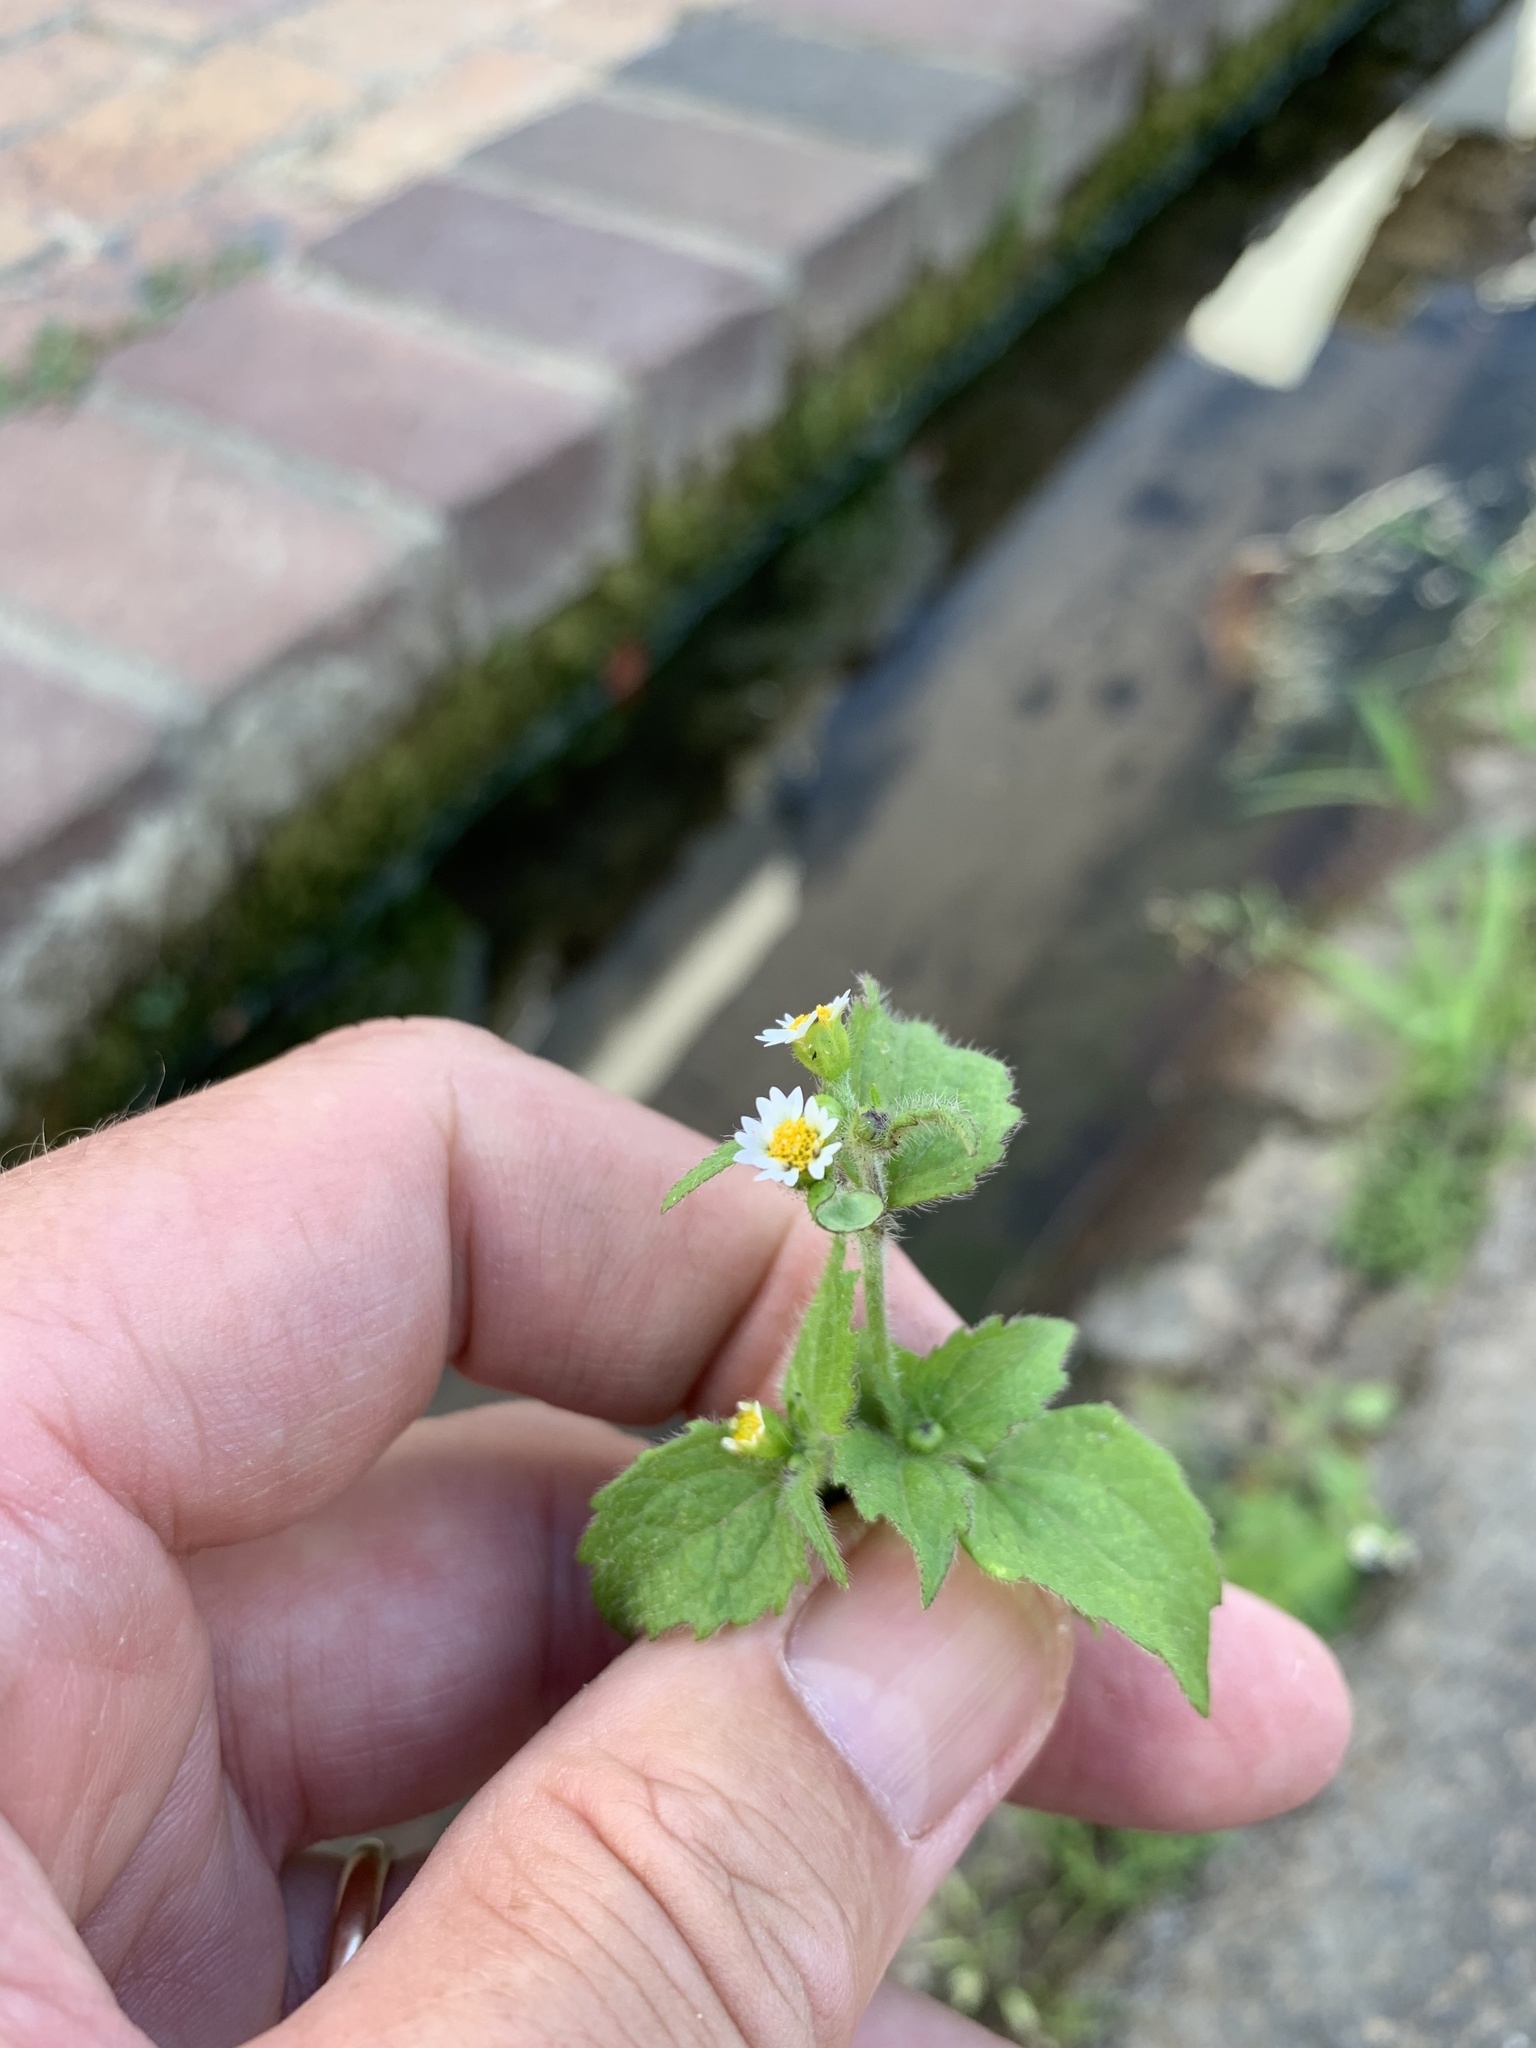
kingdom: Plantae
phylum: Tracheophyta
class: Magnoliopsida
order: Asterales
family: Asteraceae
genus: Galinsoga
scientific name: Galinsoga quadriradiata
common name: Shaggy soldier
